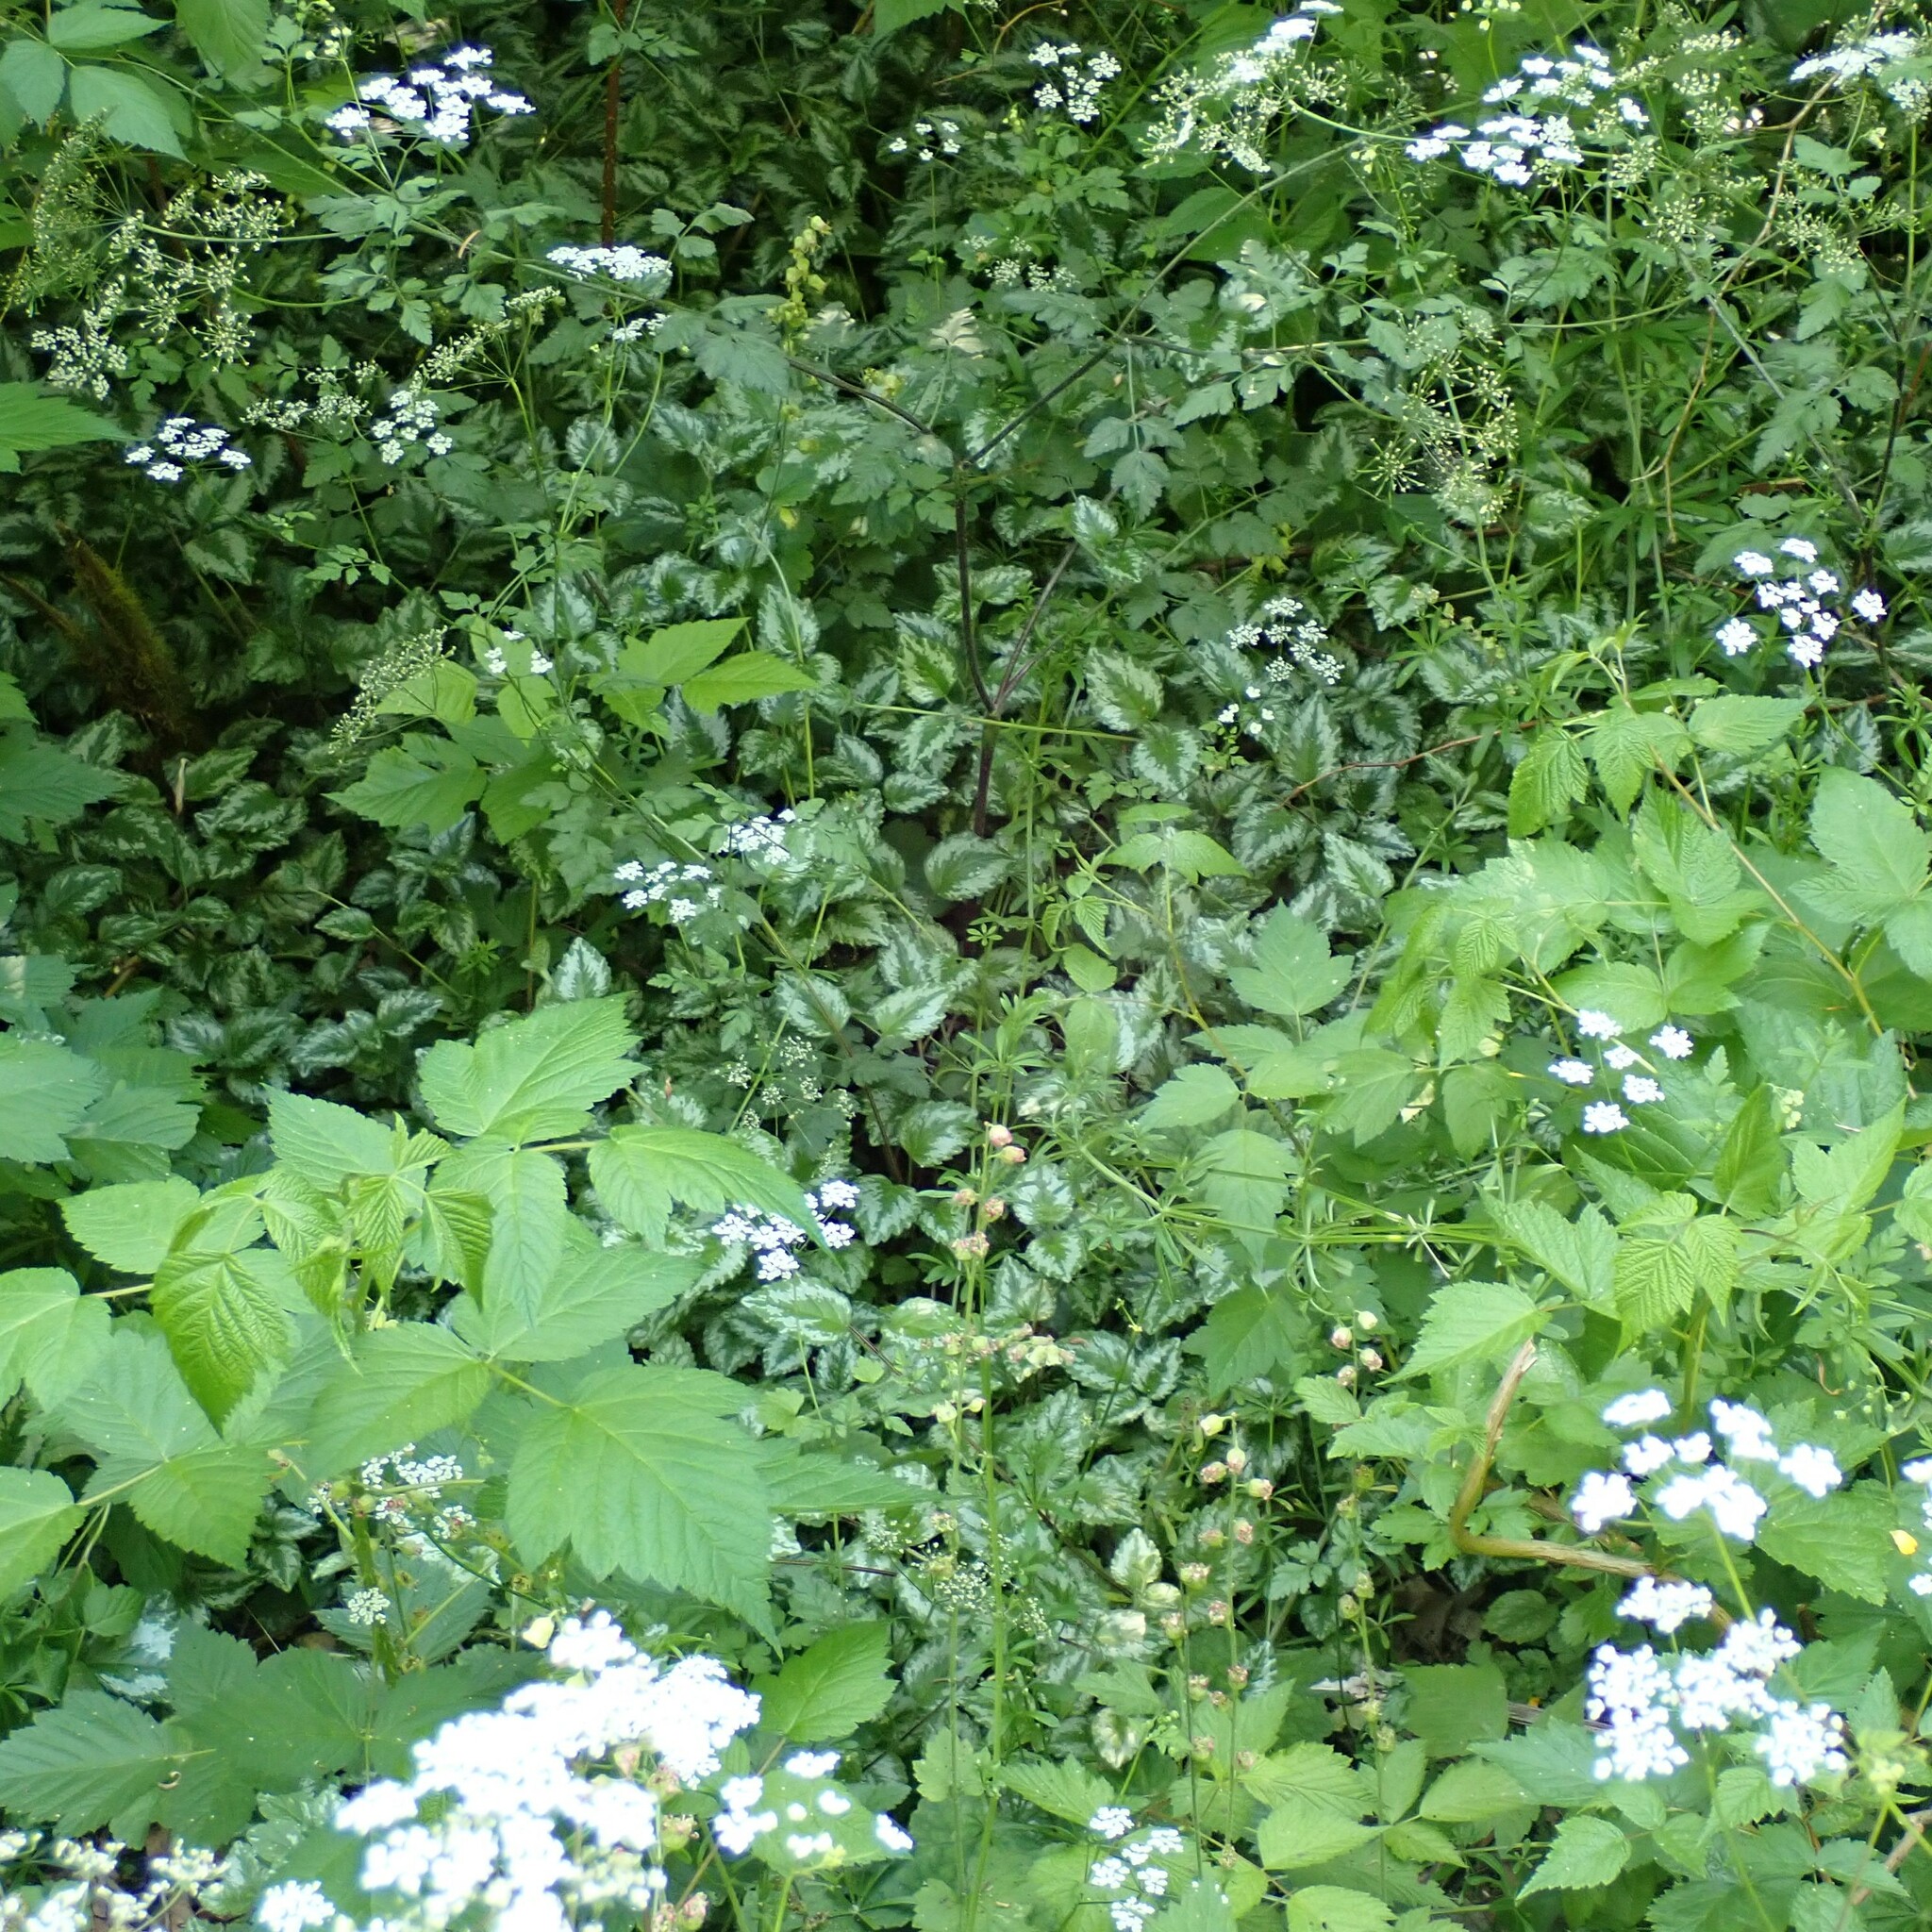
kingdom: Plantae
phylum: Tracheophyta
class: Magnoliopsida
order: Lamiales
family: Lamiaceae
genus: Lamium
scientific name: Lamium galeobdolon
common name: Yellow archangel
